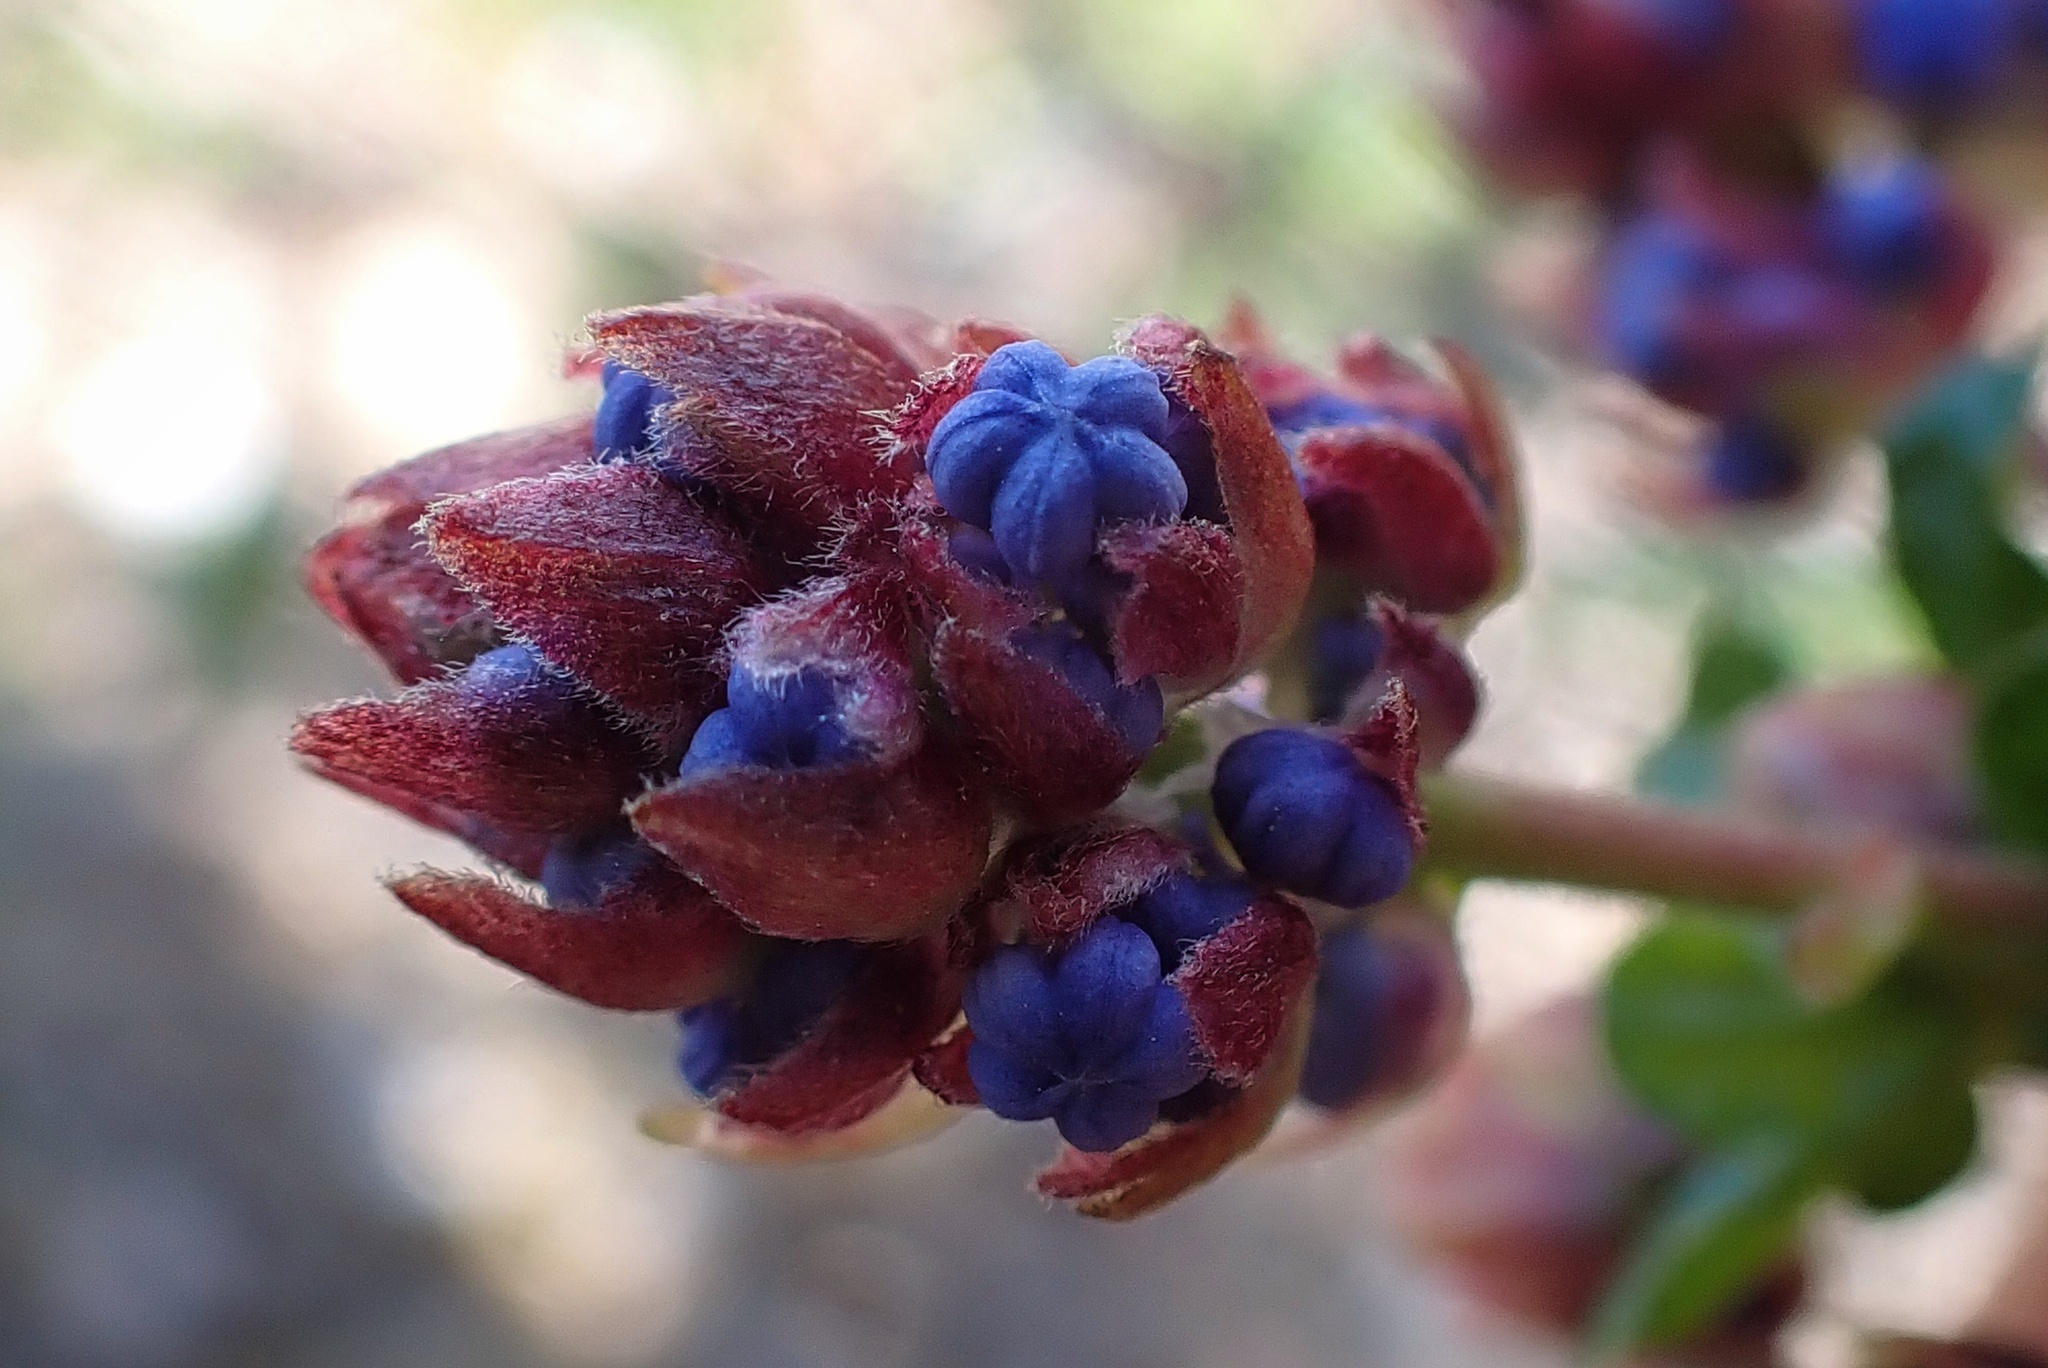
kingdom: Plantae
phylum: Tracheophyta
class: Magnoliopsida
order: Rosales
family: Rhamnaceae
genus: Ceanothus
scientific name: Ceanothus foliosus
